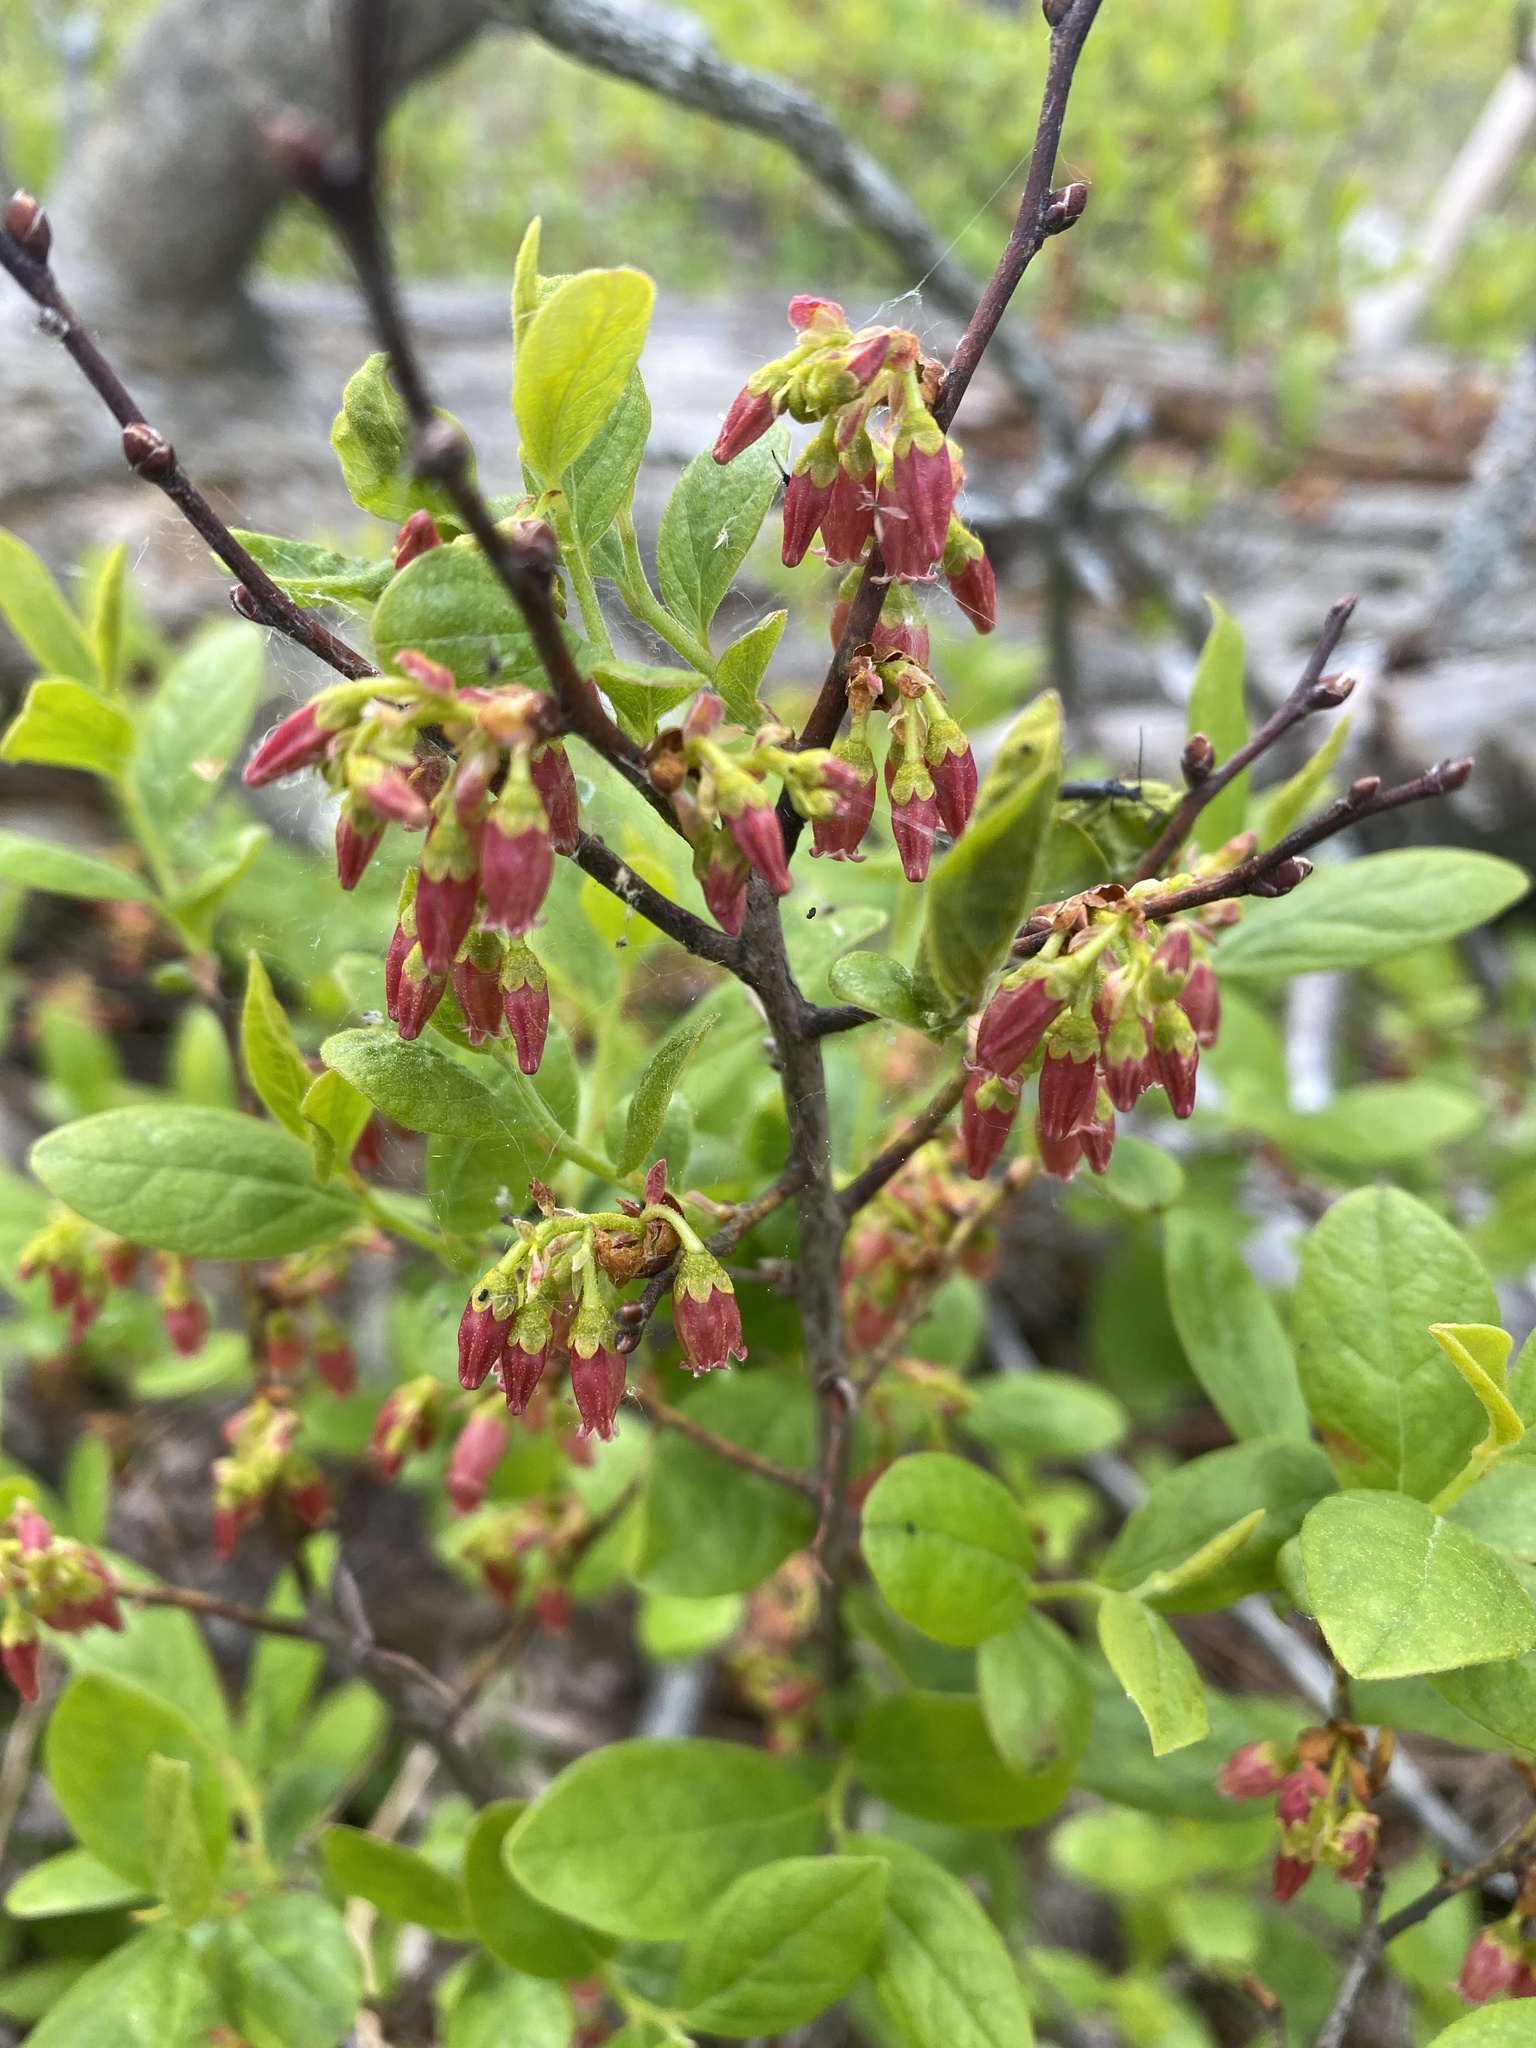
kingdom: Plantae
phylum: Tracheophyta
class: Magnoliopsida
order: Ericales
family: Ericaceae
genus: Gaylussacia
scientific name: Gaylussacia baccata
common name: Black huckleberry
